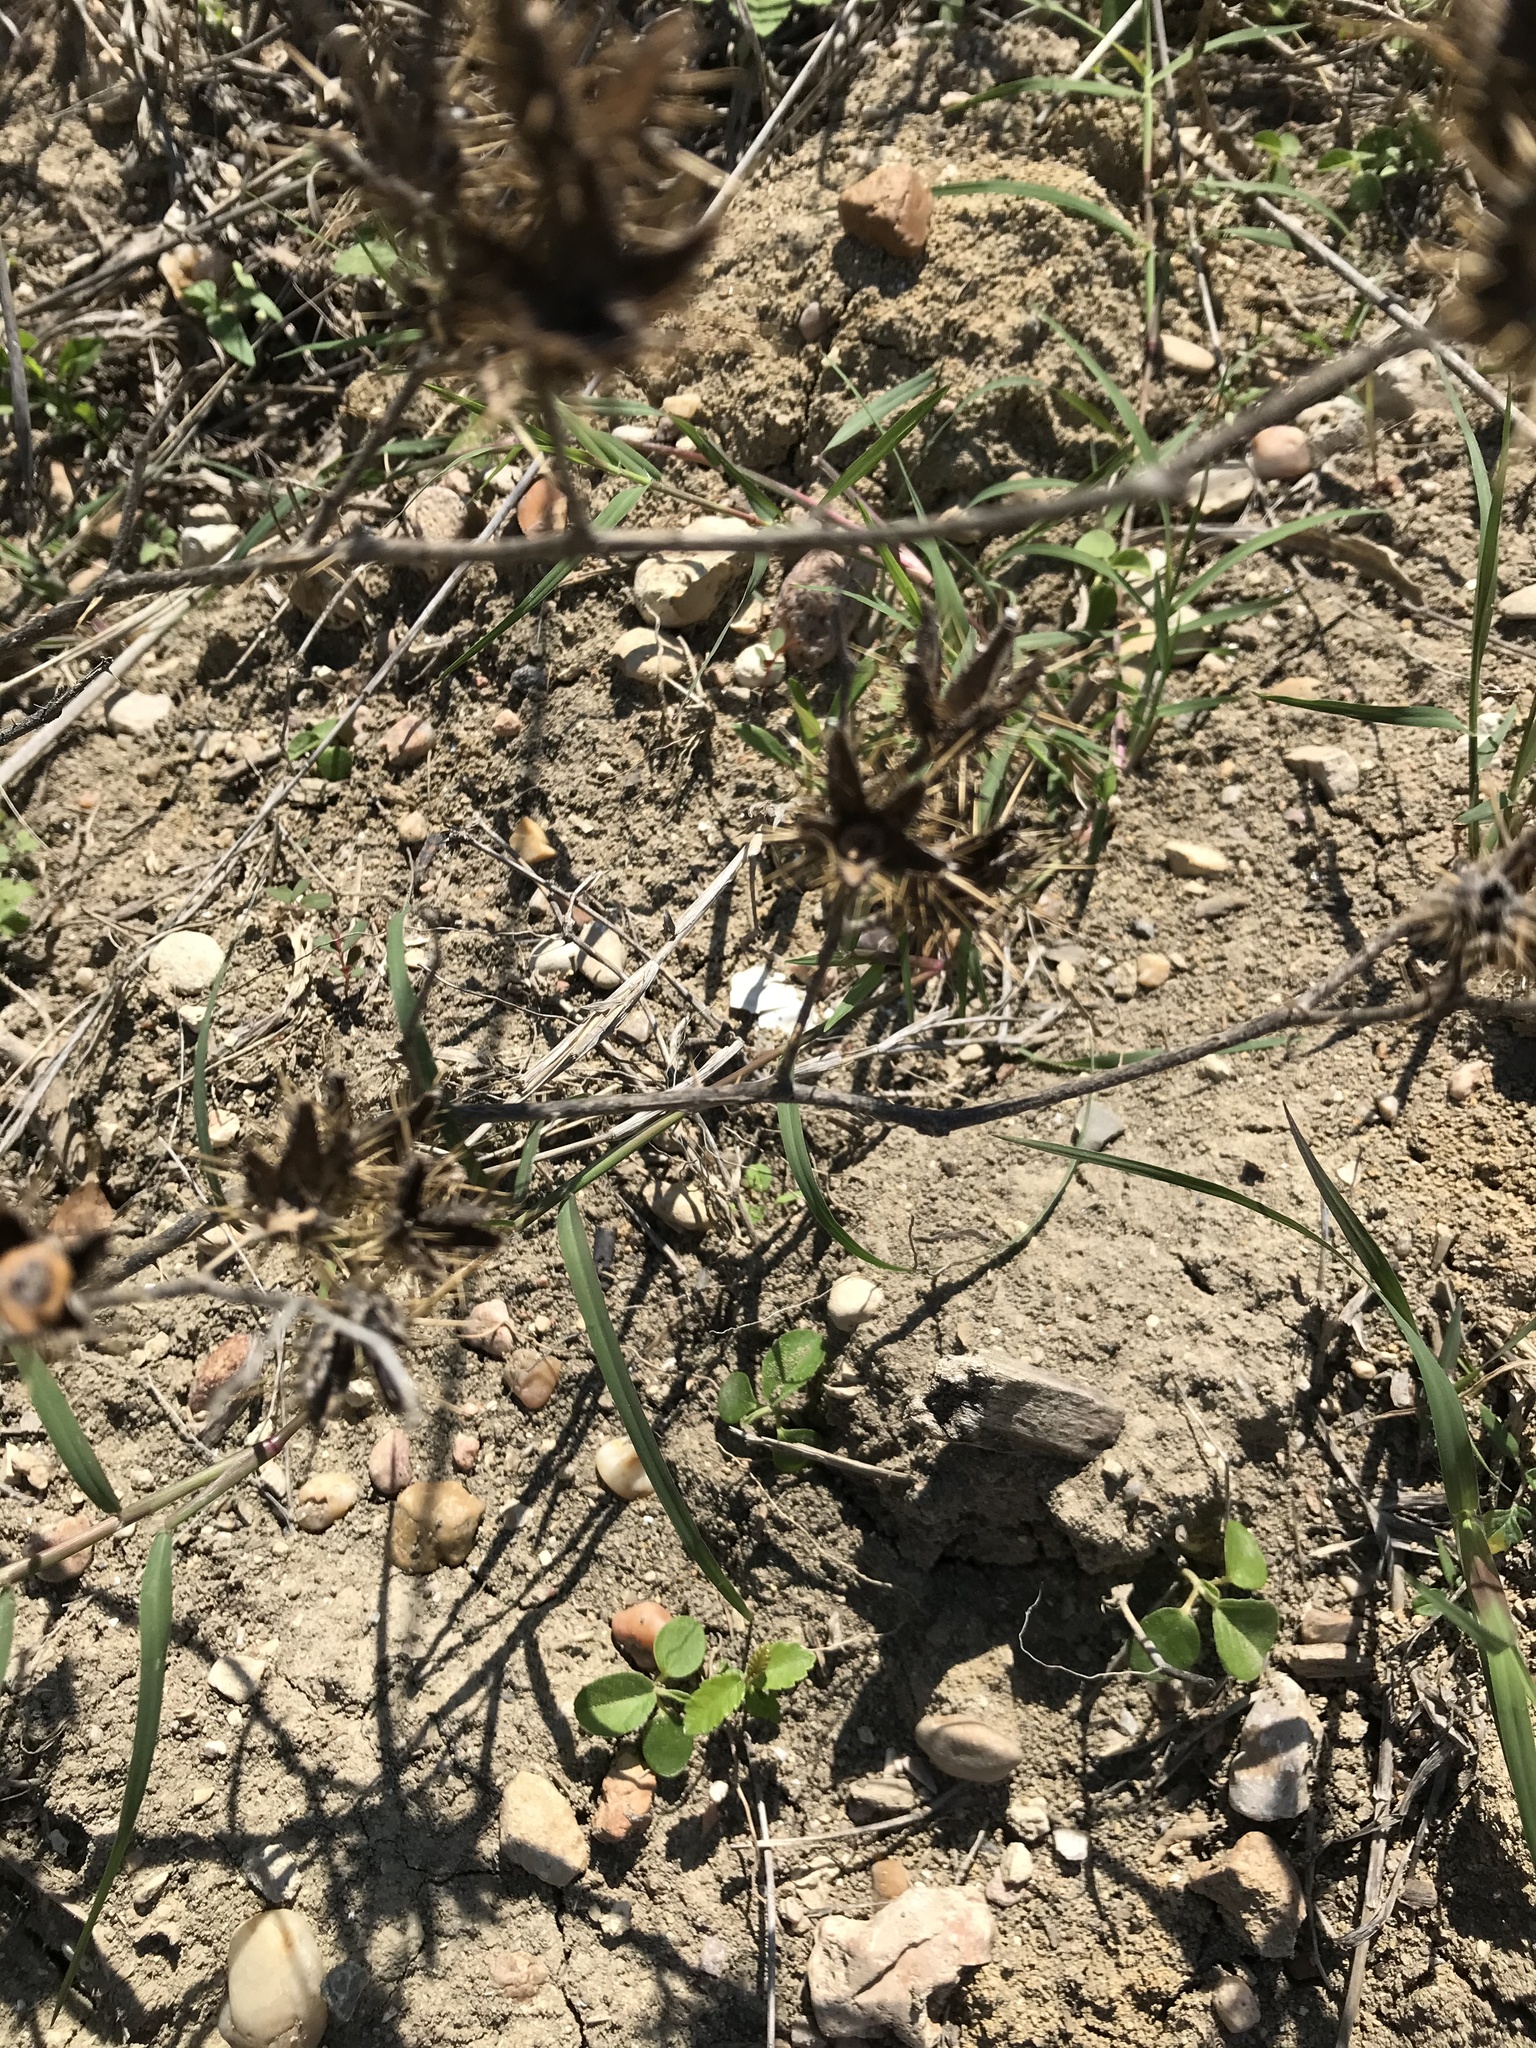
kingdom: Plantae
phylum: Tracheophyta
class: Magnoliopsida
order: Solanales
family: Solanaceae
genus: Solanum
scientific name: Solanum angustifolium
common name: Buffalobur nightshade
